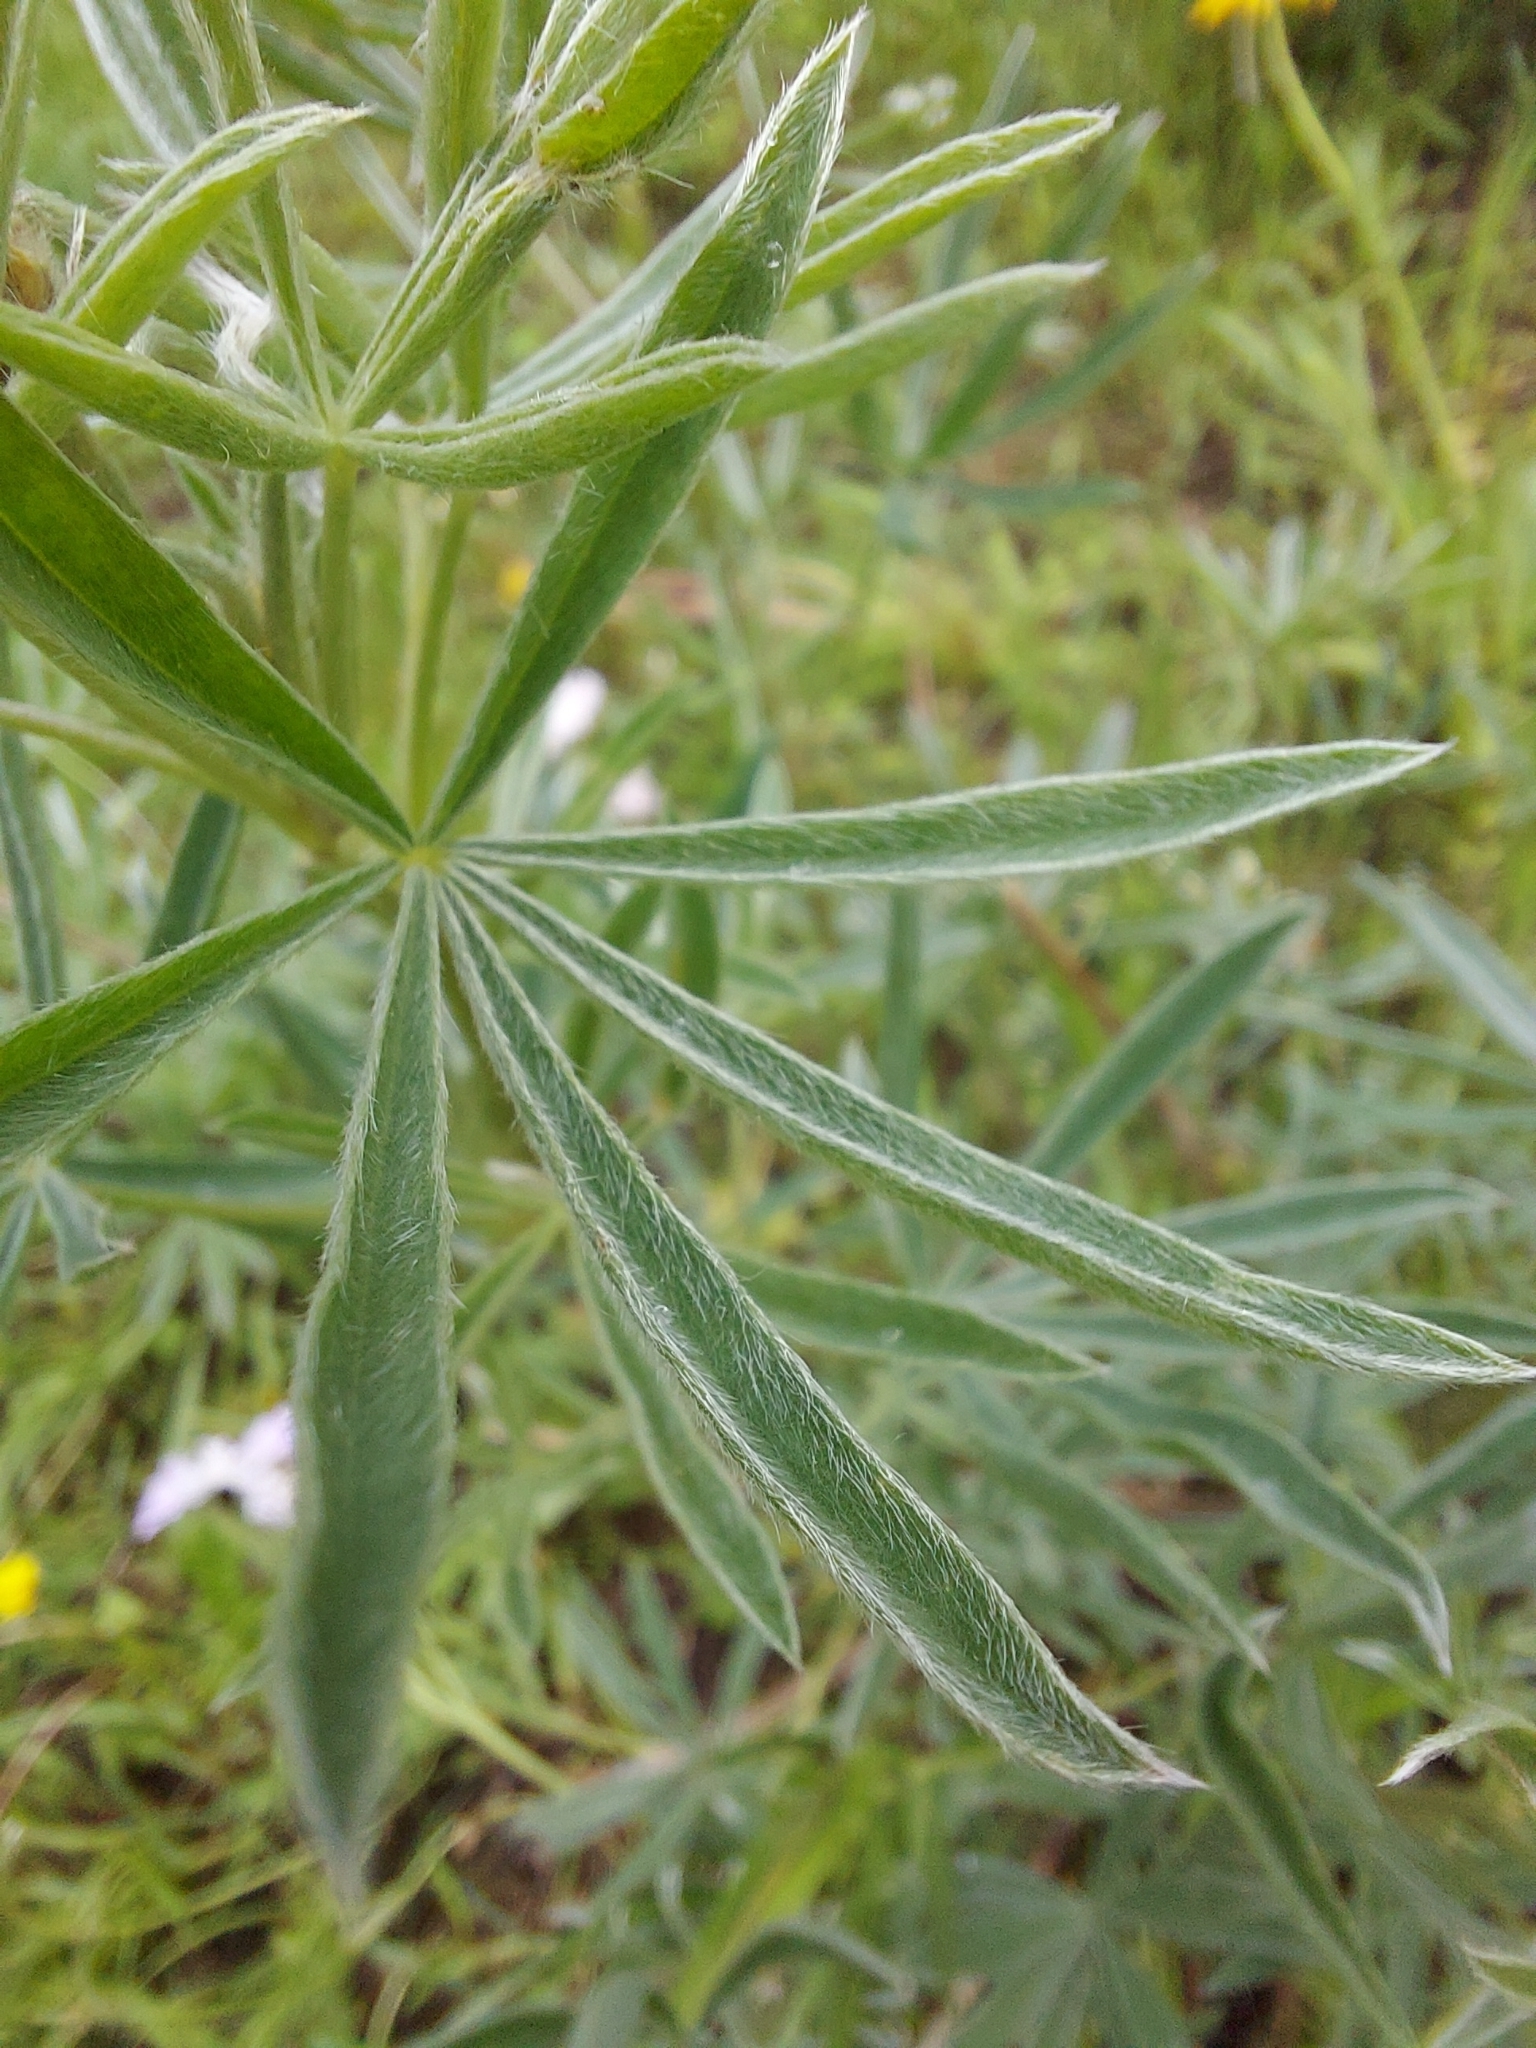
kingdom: Plantae
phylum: Tracheophyta
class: Magnoliopsida
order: Fabales
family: Fabaceae
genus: Lupinus
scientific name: Lupinus sulphureus
